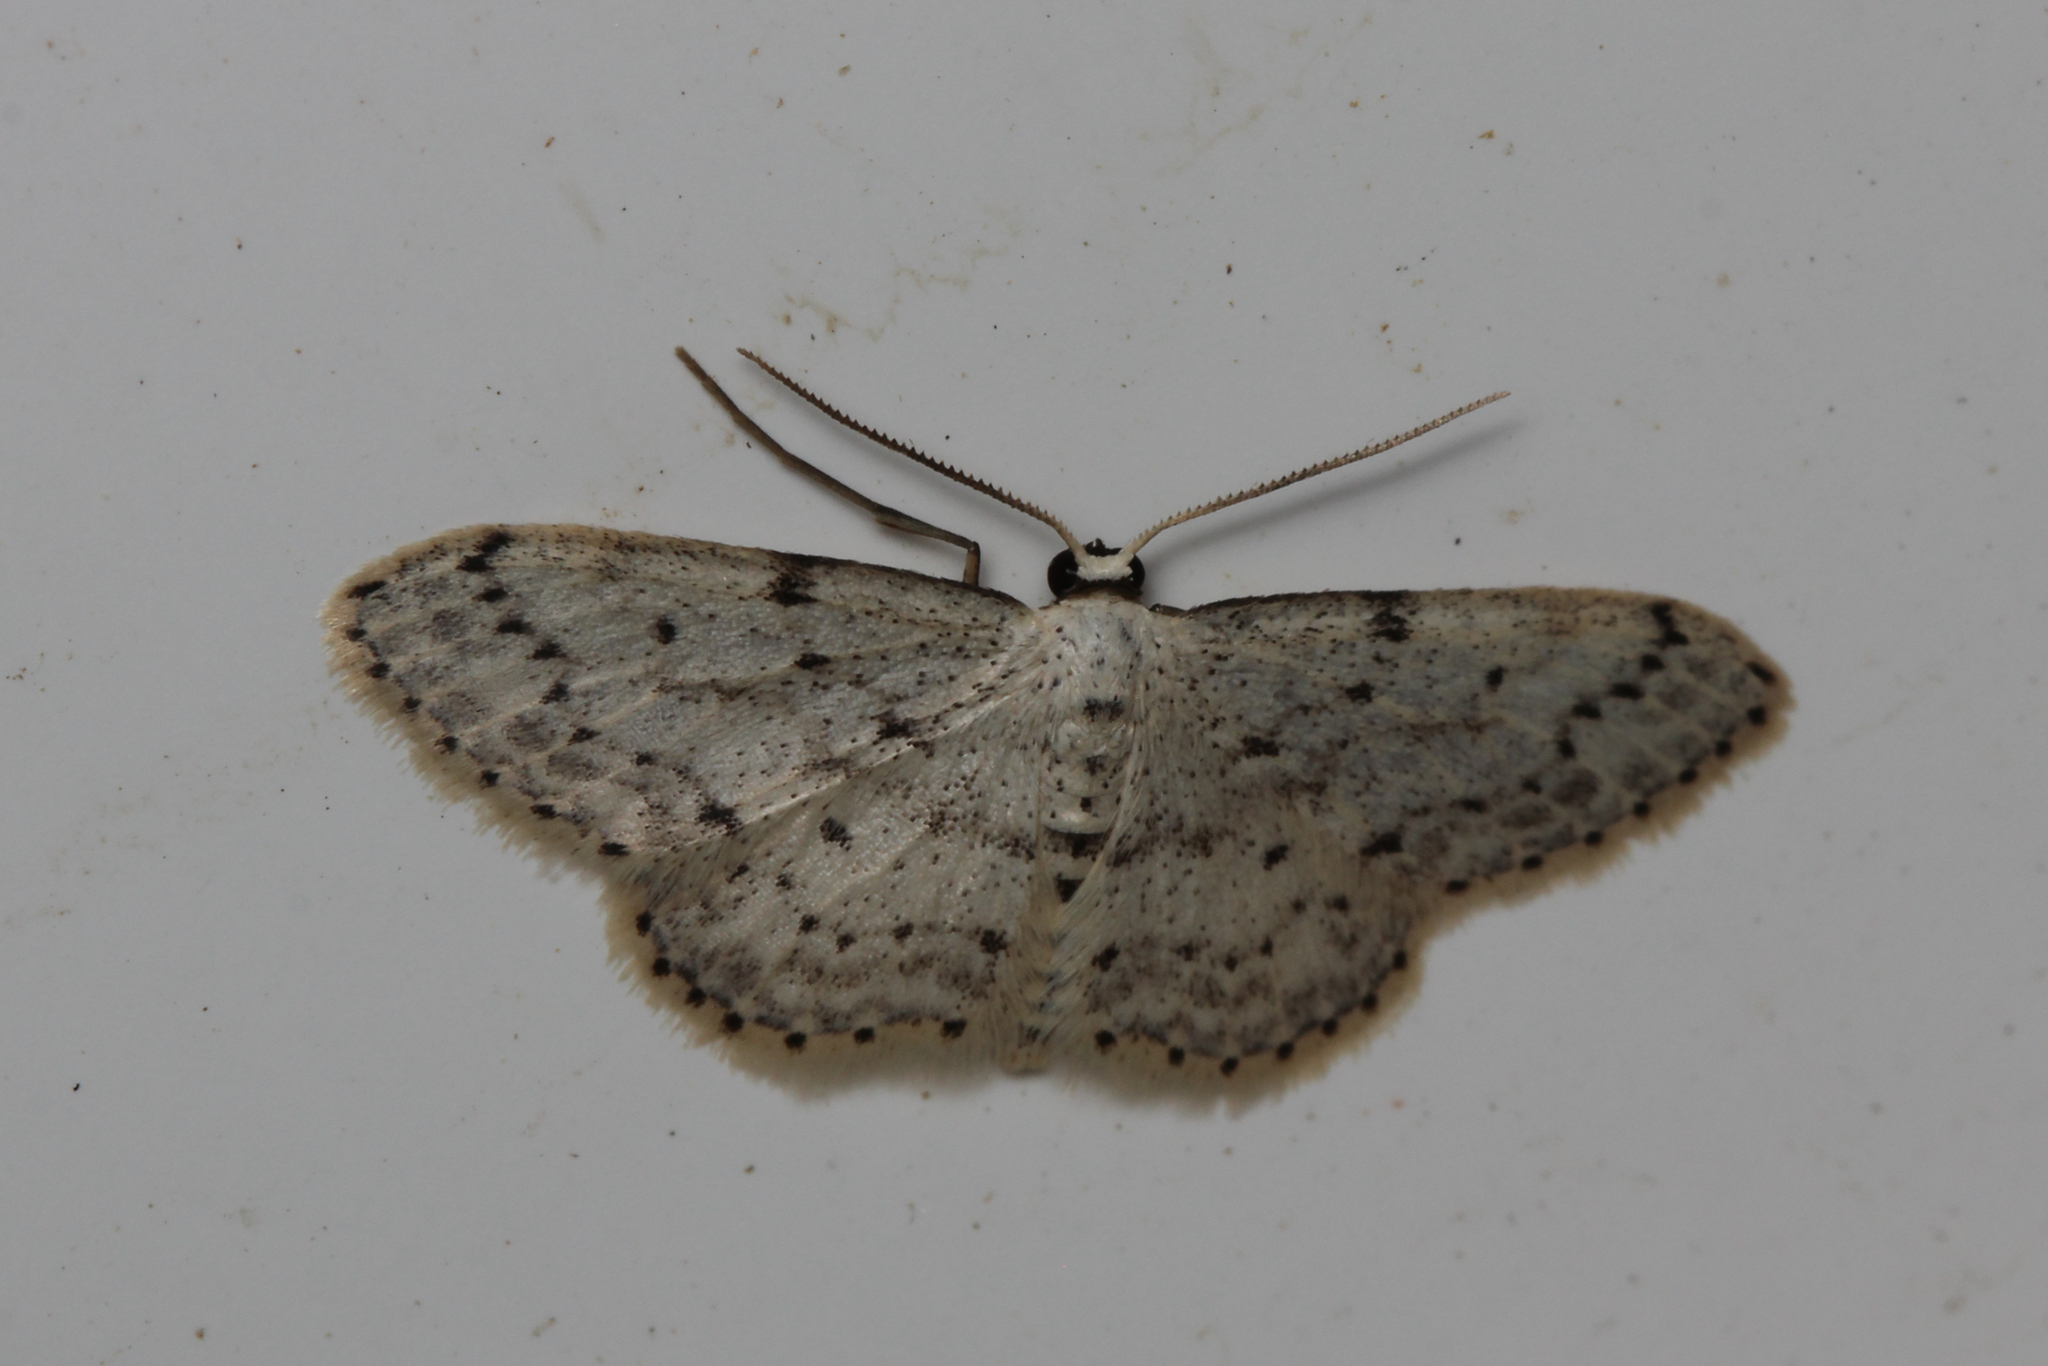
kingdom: Animalia
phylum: Arthropoda
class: Insecta
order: Lepidoptera
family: Geometridae
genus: Idaea
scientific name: Idaea seriata
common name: Small dusty wave
